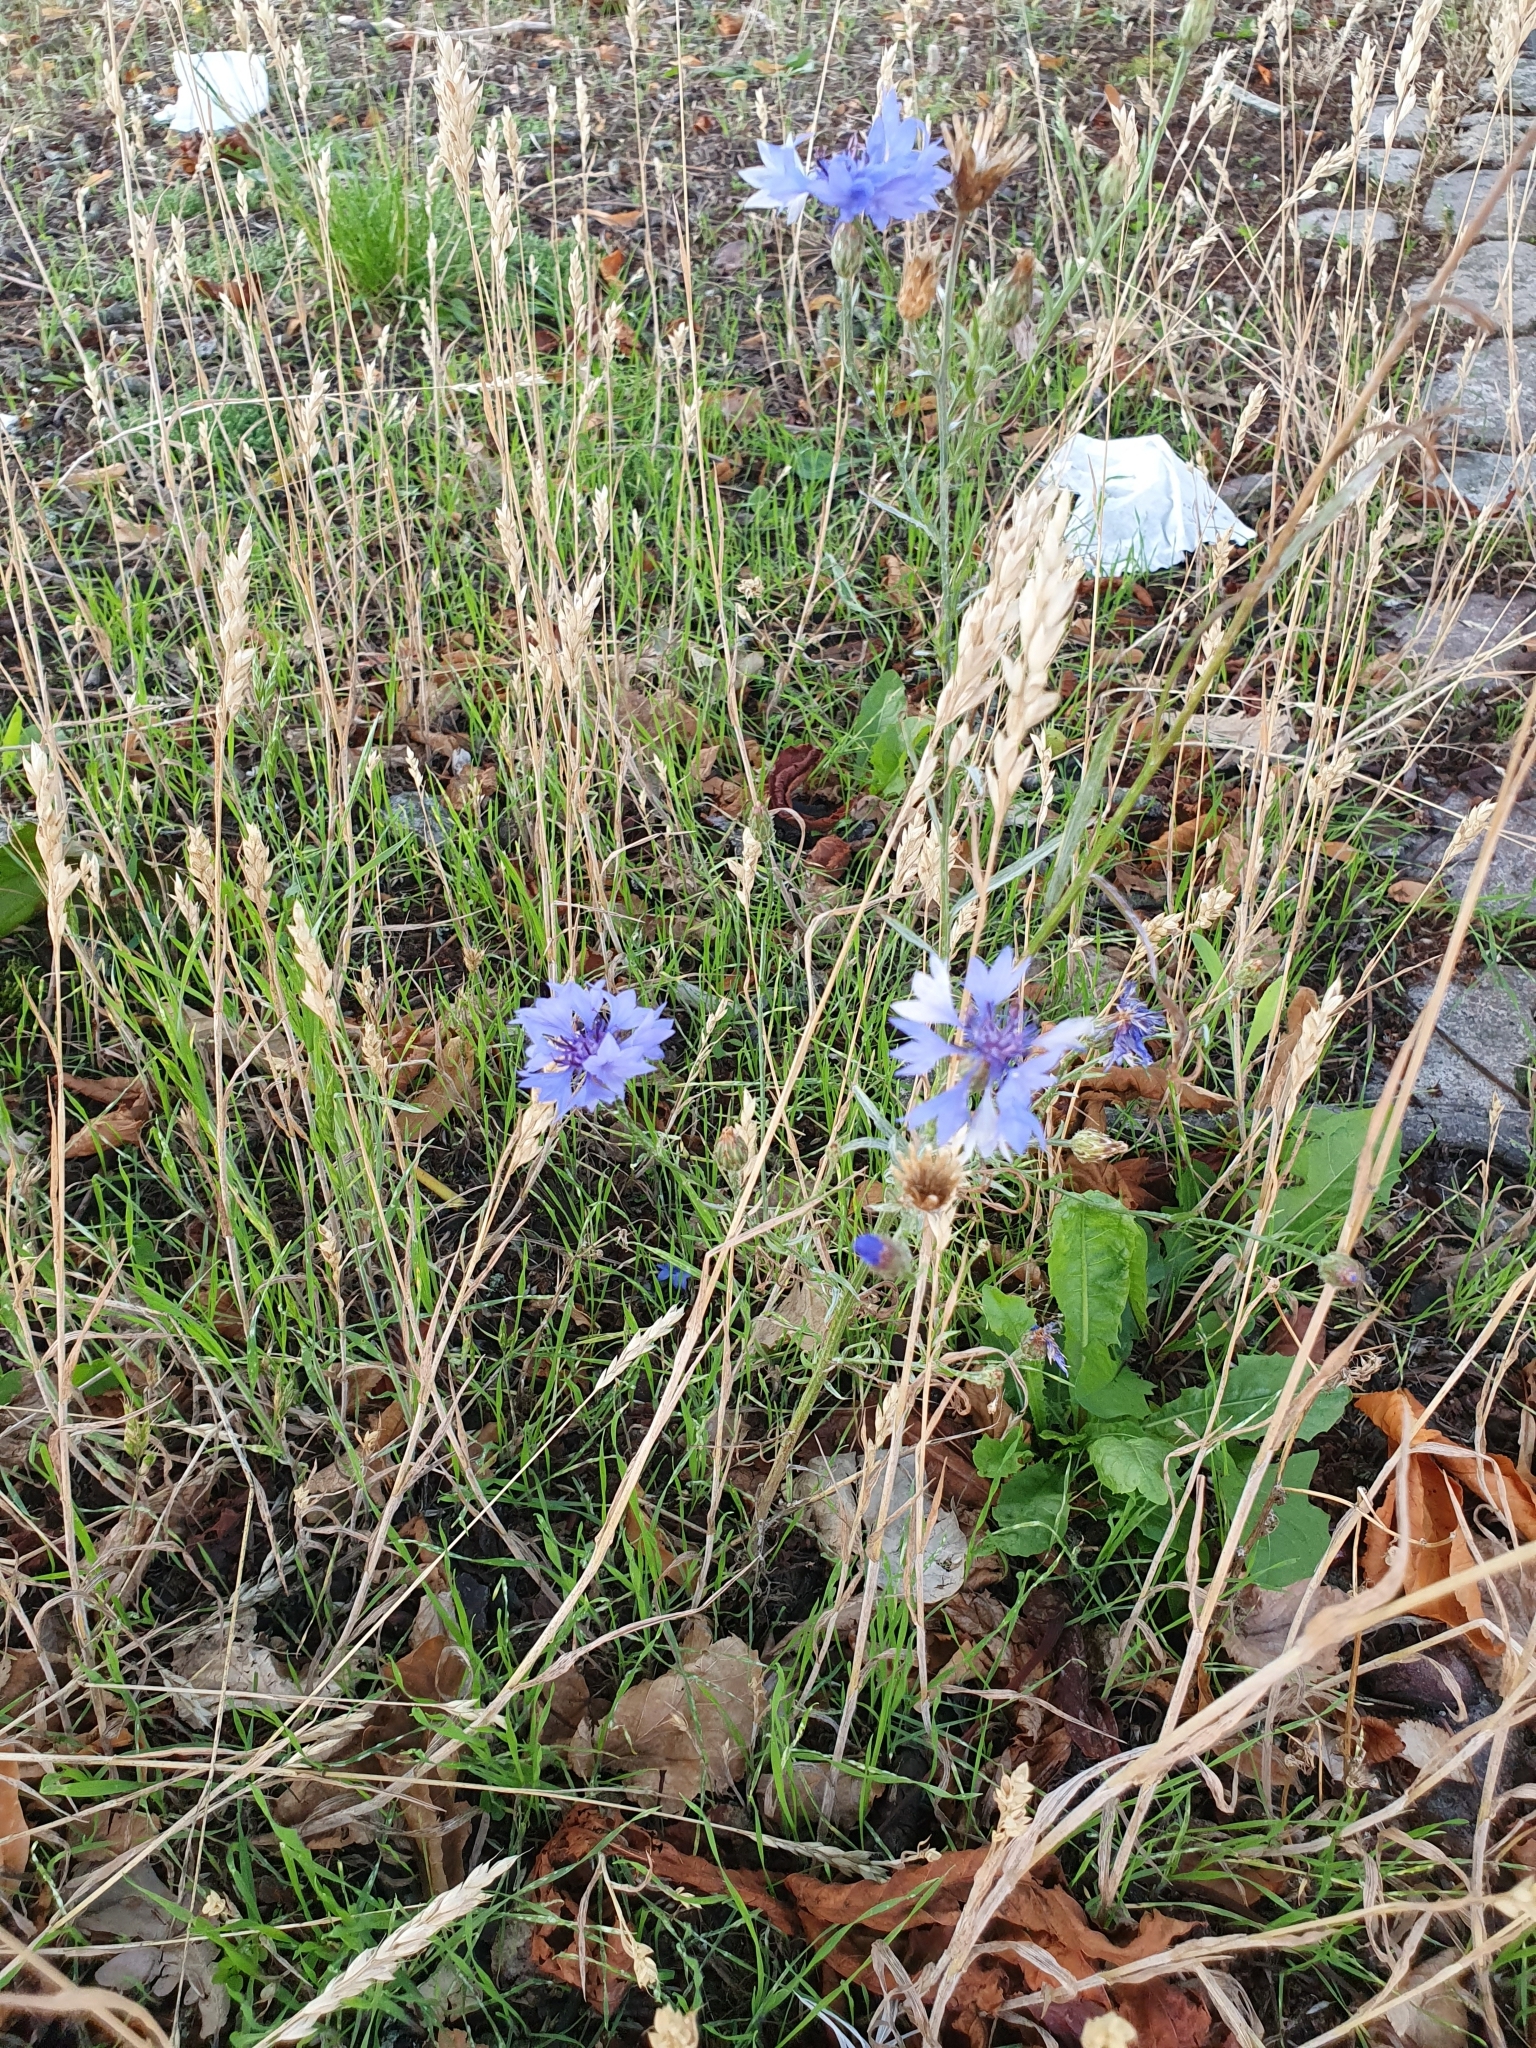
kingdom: Plantae
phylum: Tracheophyta
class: Magnoliopsida
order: Asterales
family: Asteraceae
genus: Centaurea
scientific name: Centaurea cyanus
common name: Cornflower
